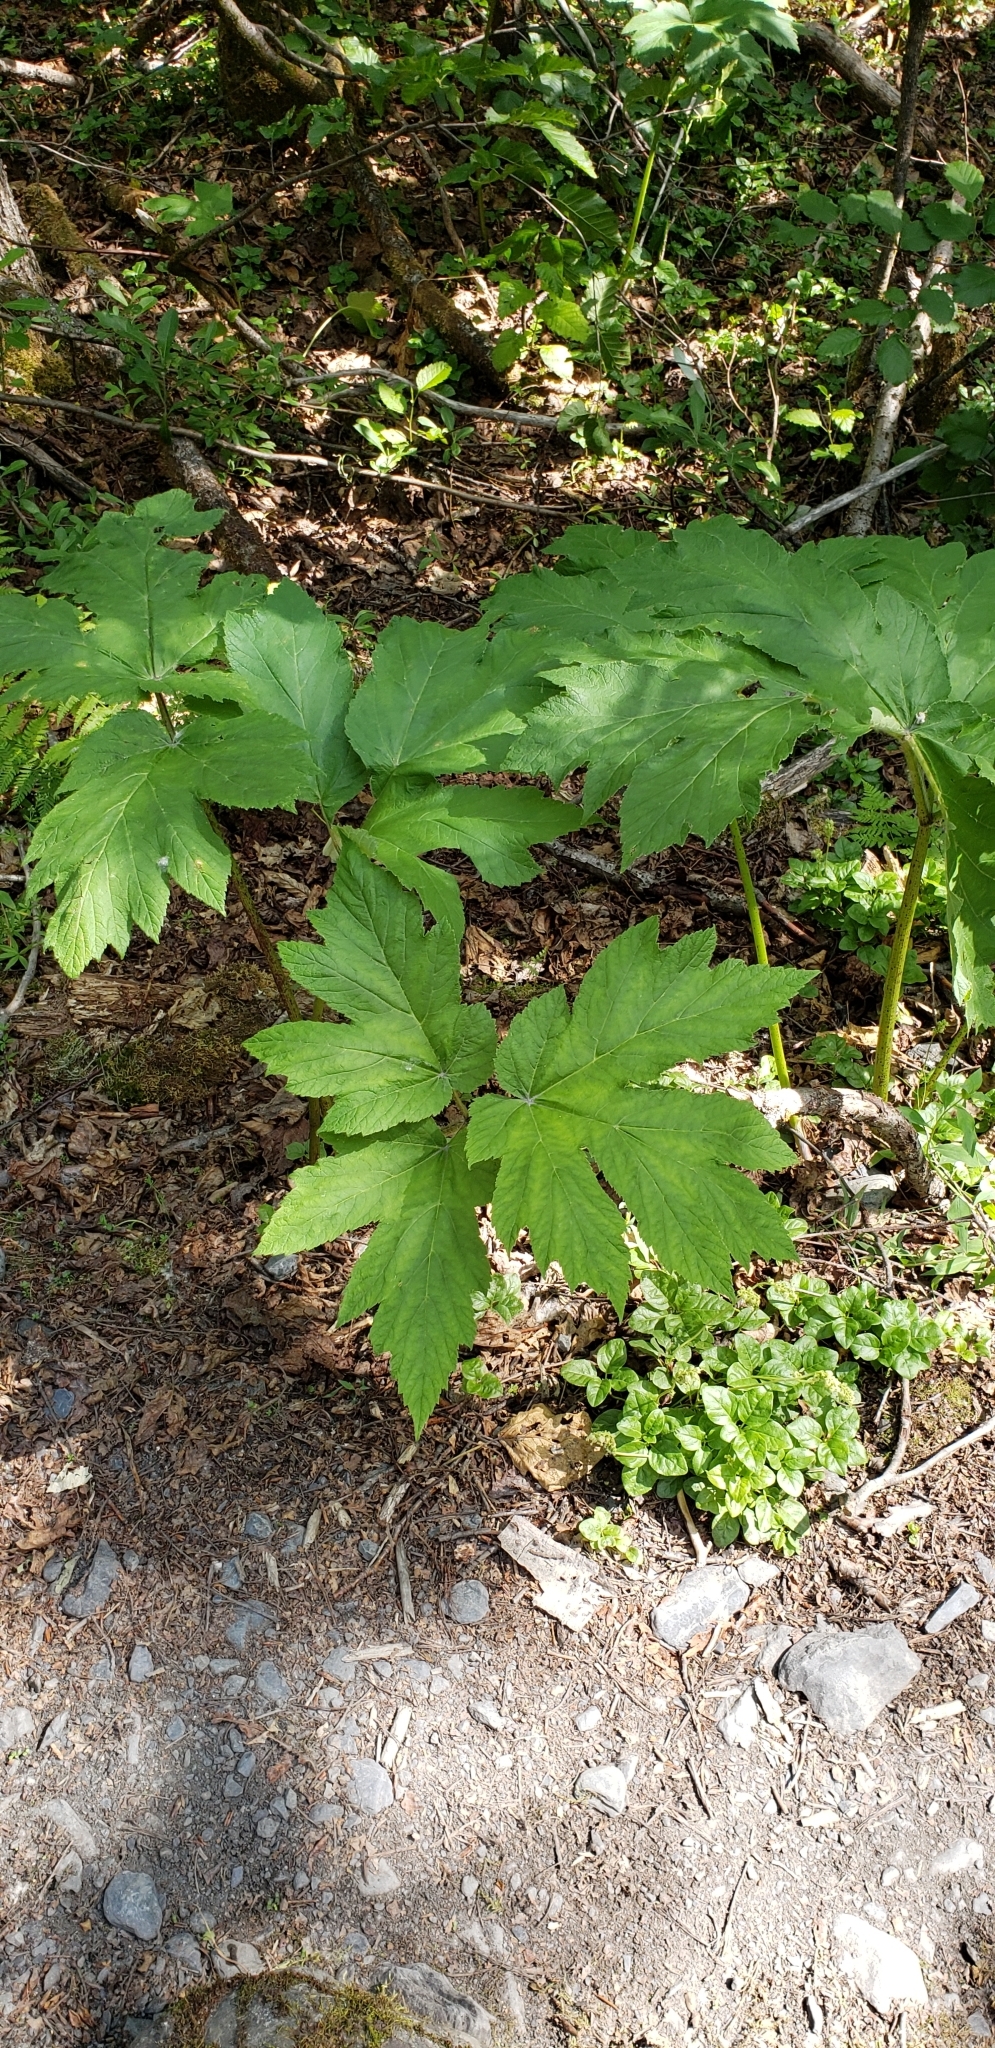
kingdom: Plantae
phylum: Tracheophyta
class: Magnoliopsida
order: Apiales
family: Apiaceae
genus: Heracleum
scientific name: Heracleum maximum
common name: American cow parsnip
